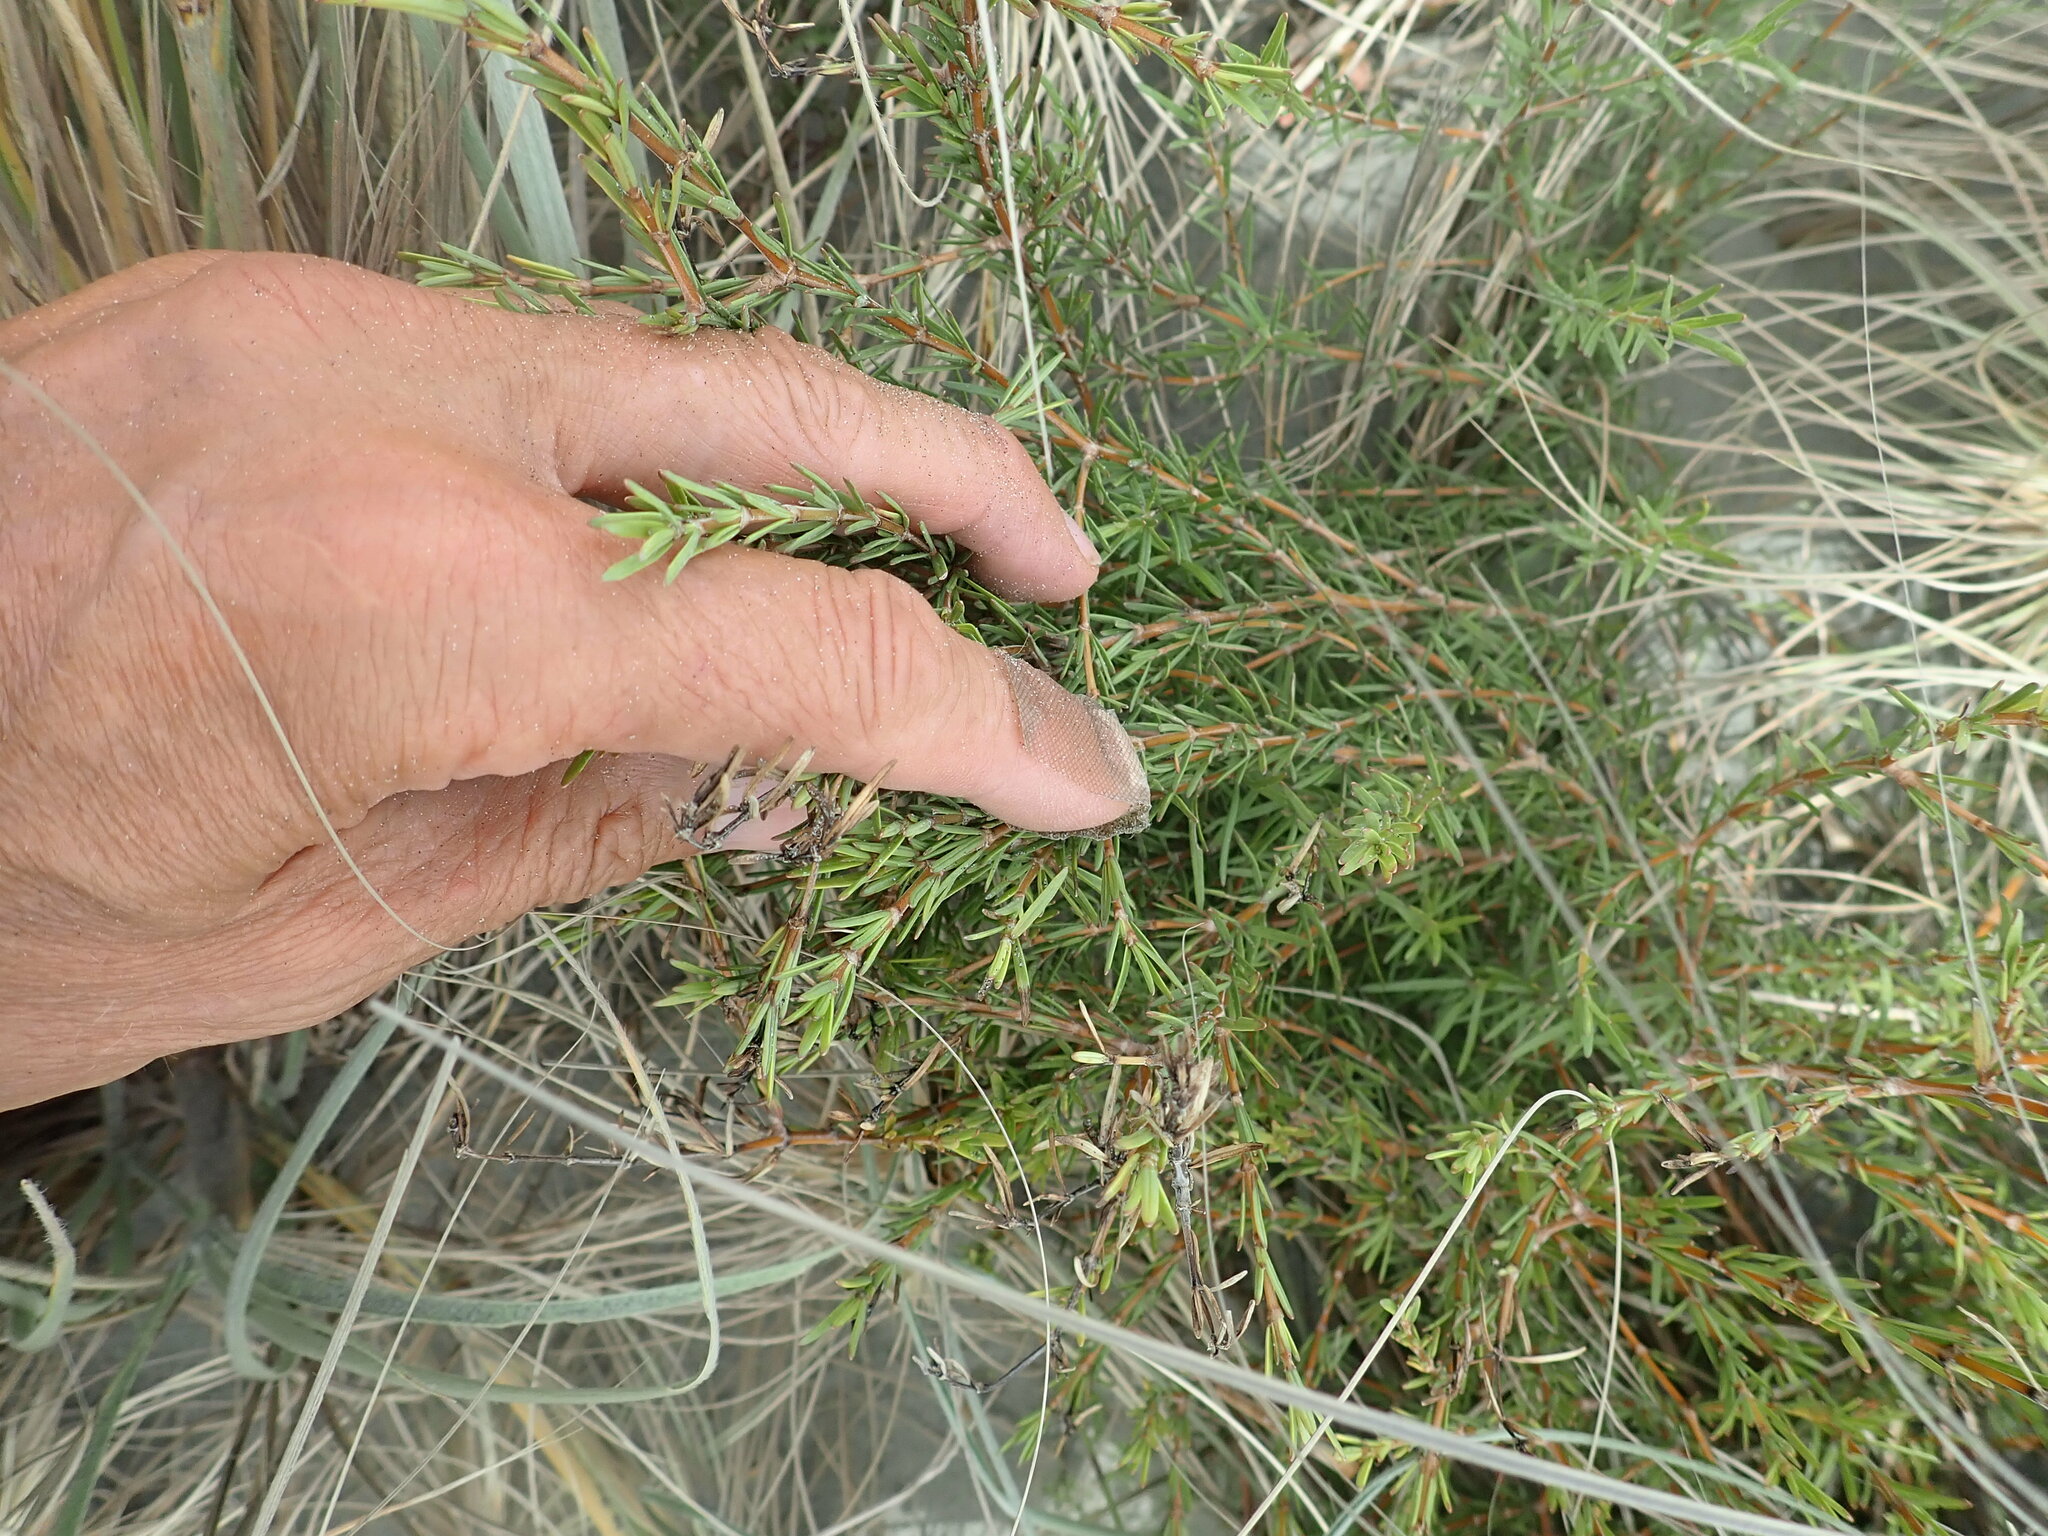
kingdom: Plantae
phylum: Tracheophyta
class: Magnoliopsida
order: Gentianales
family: Rubiaceae
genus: Coprosma
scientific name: Coprosma acerosa
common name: Sand coprosma
